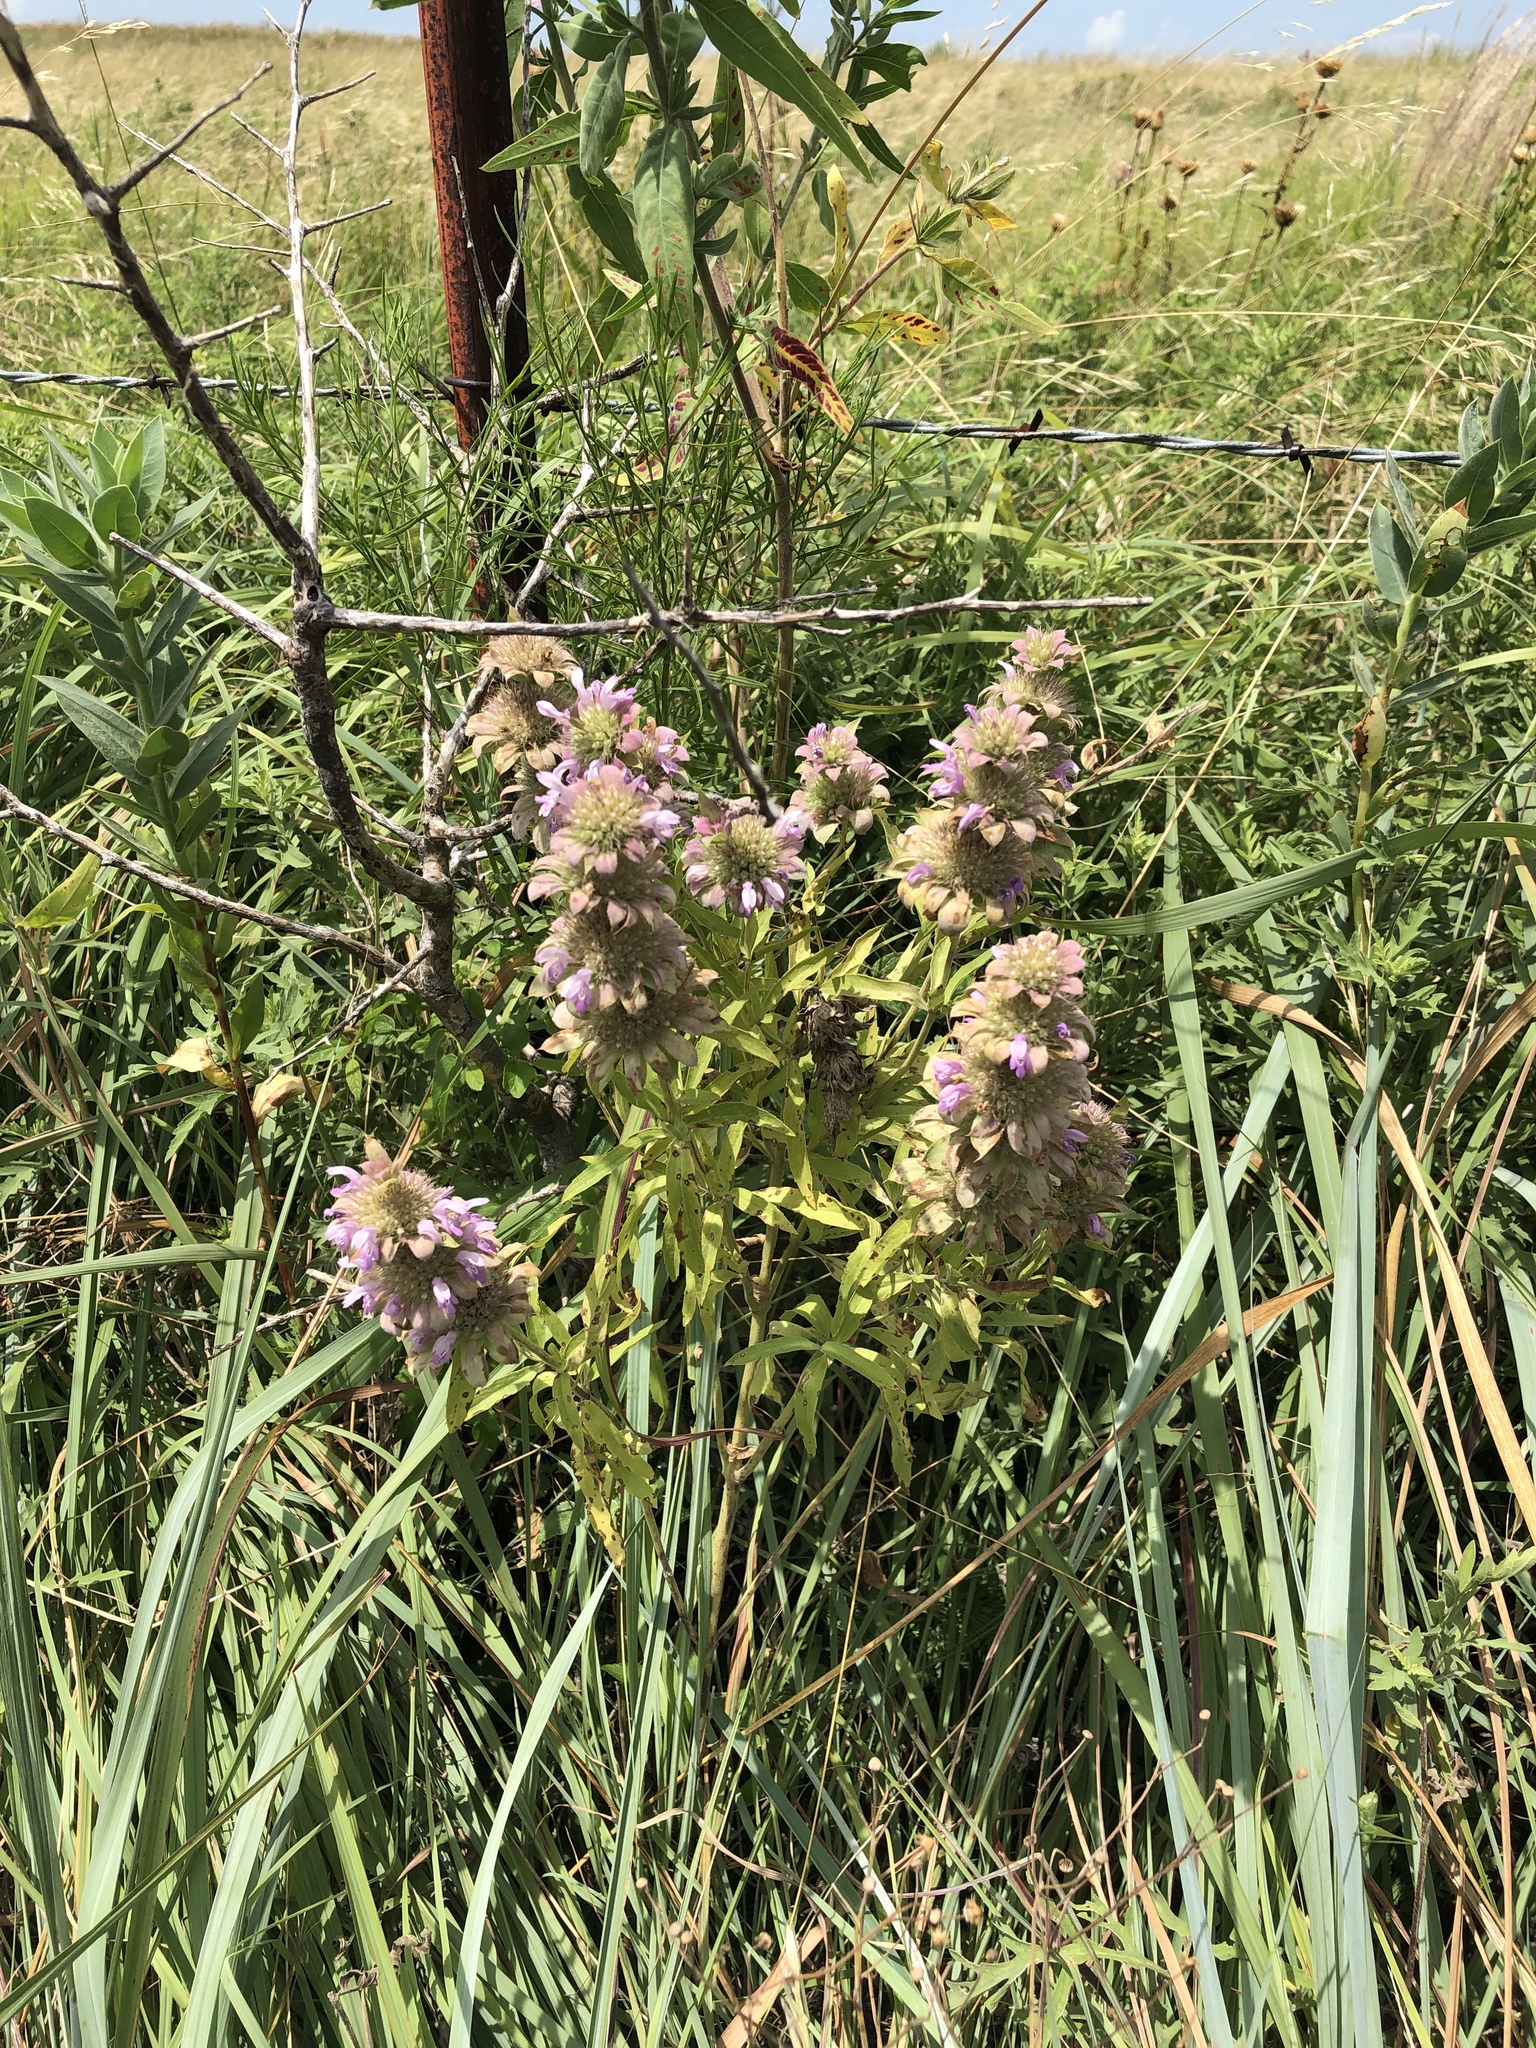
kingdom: Plantae
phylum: Tracheophyta
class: Magnoliopsida
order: Lamiales
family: Lamiaceae
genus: Monarda
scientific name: Monarda citriodora
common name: Lemon beebalm
